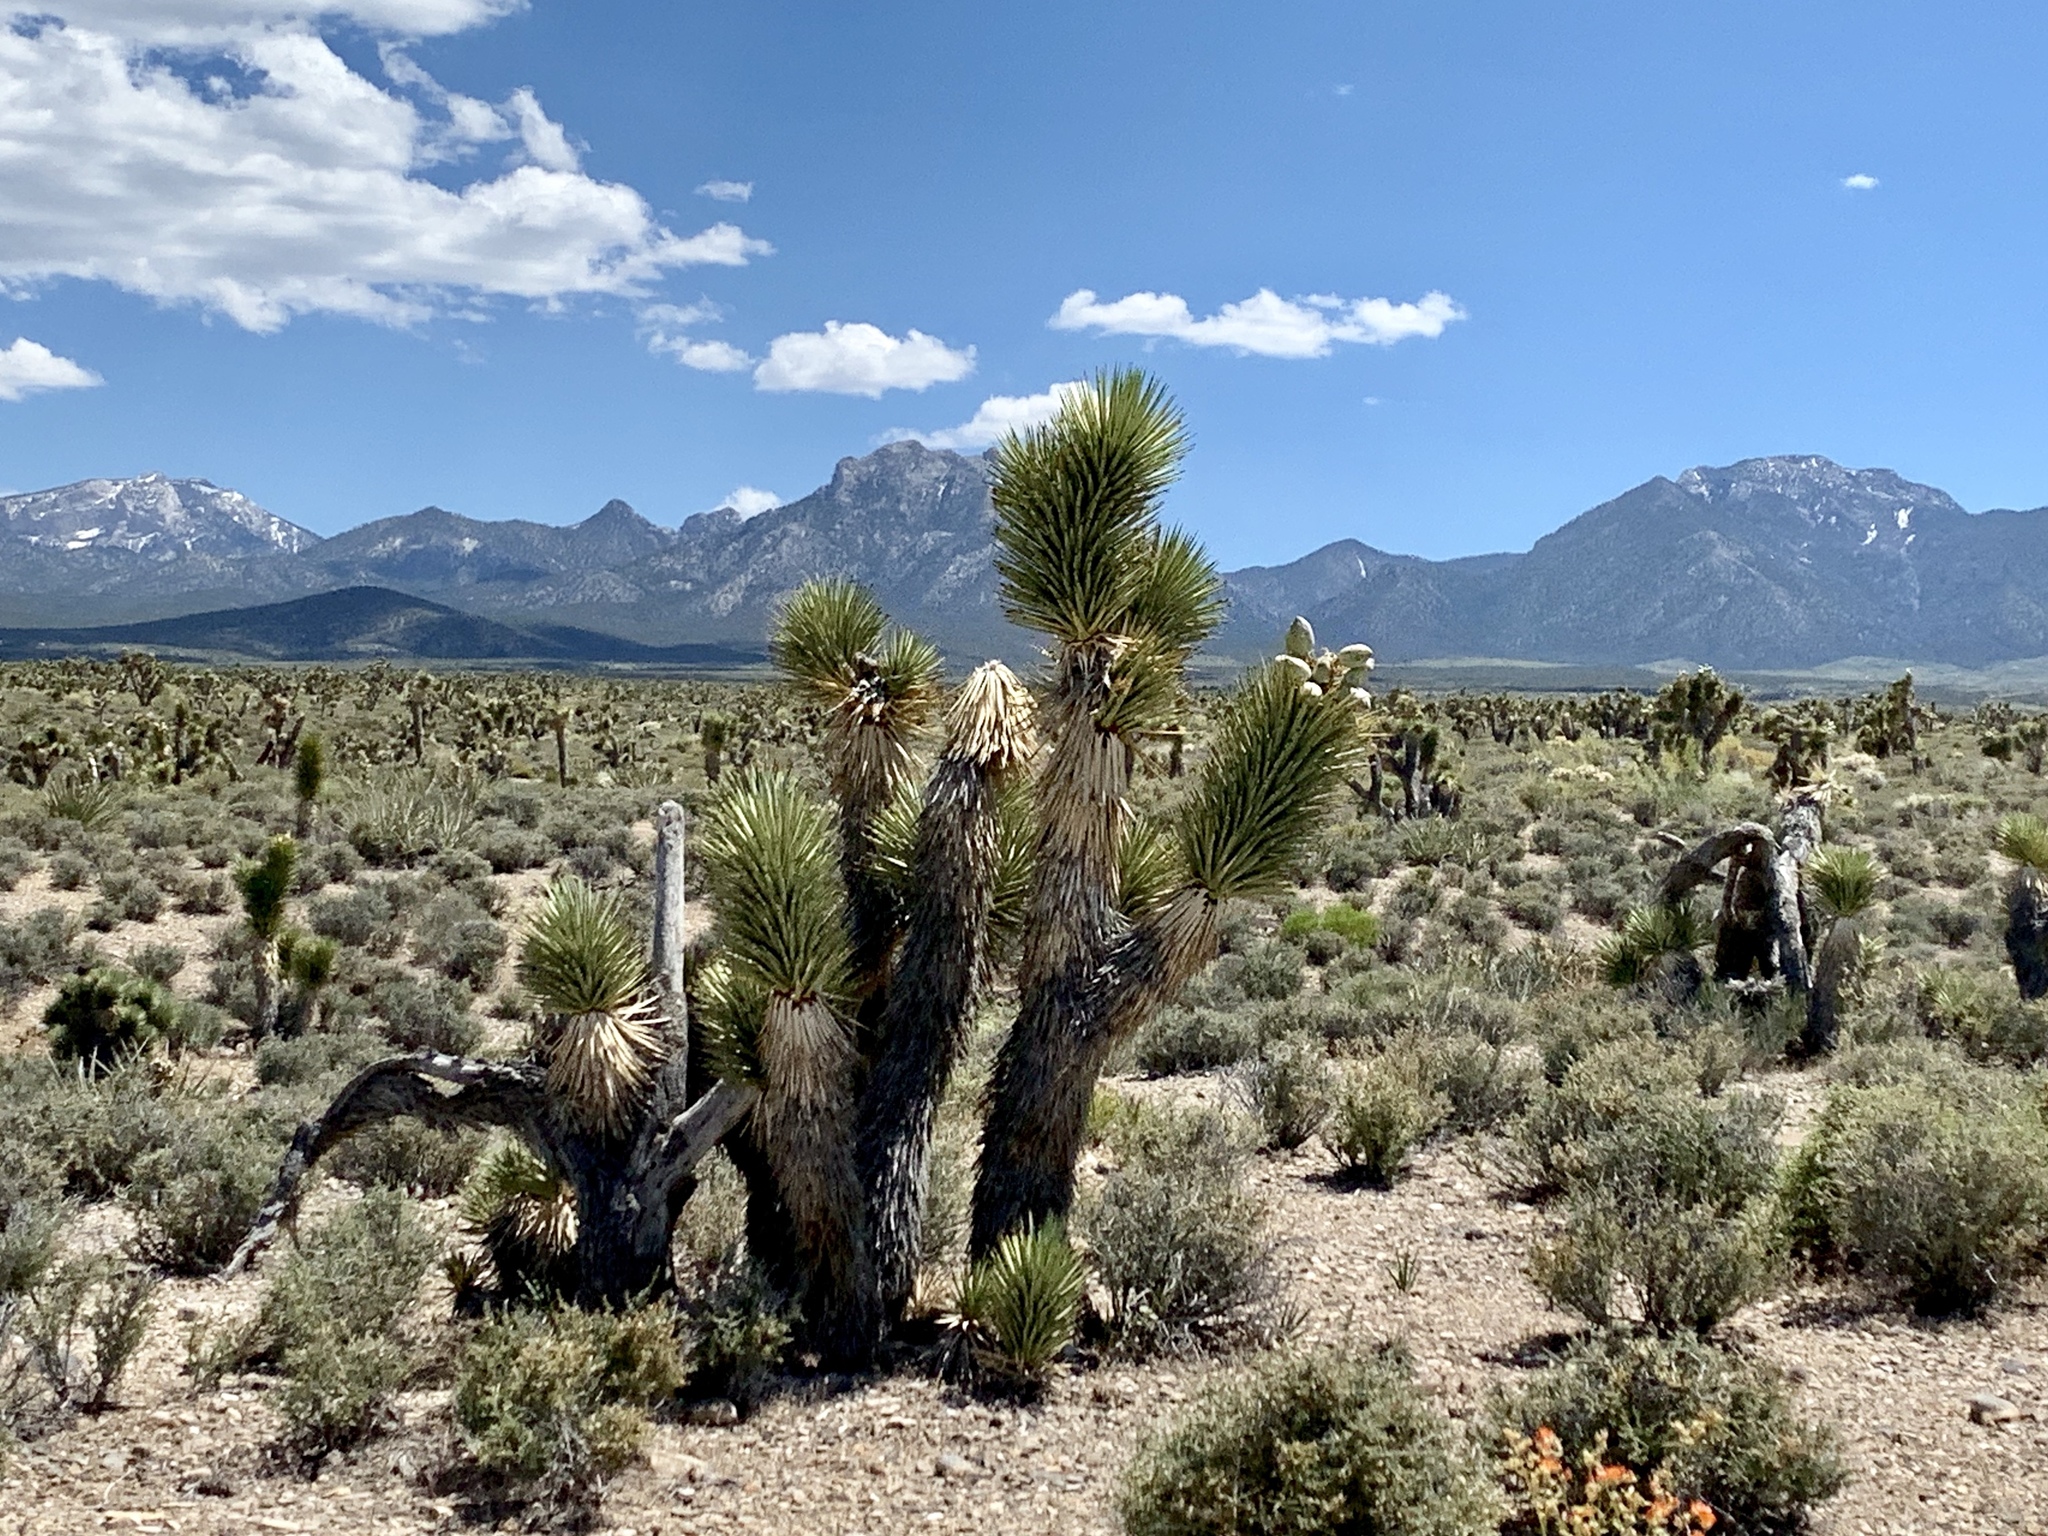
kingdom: Plantae
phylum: Tracheophyta
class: Liliopsida
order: Asparagales
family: Asparagaceae
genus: Yucca
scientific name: Yucca brevifolia
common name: Joshua tree
